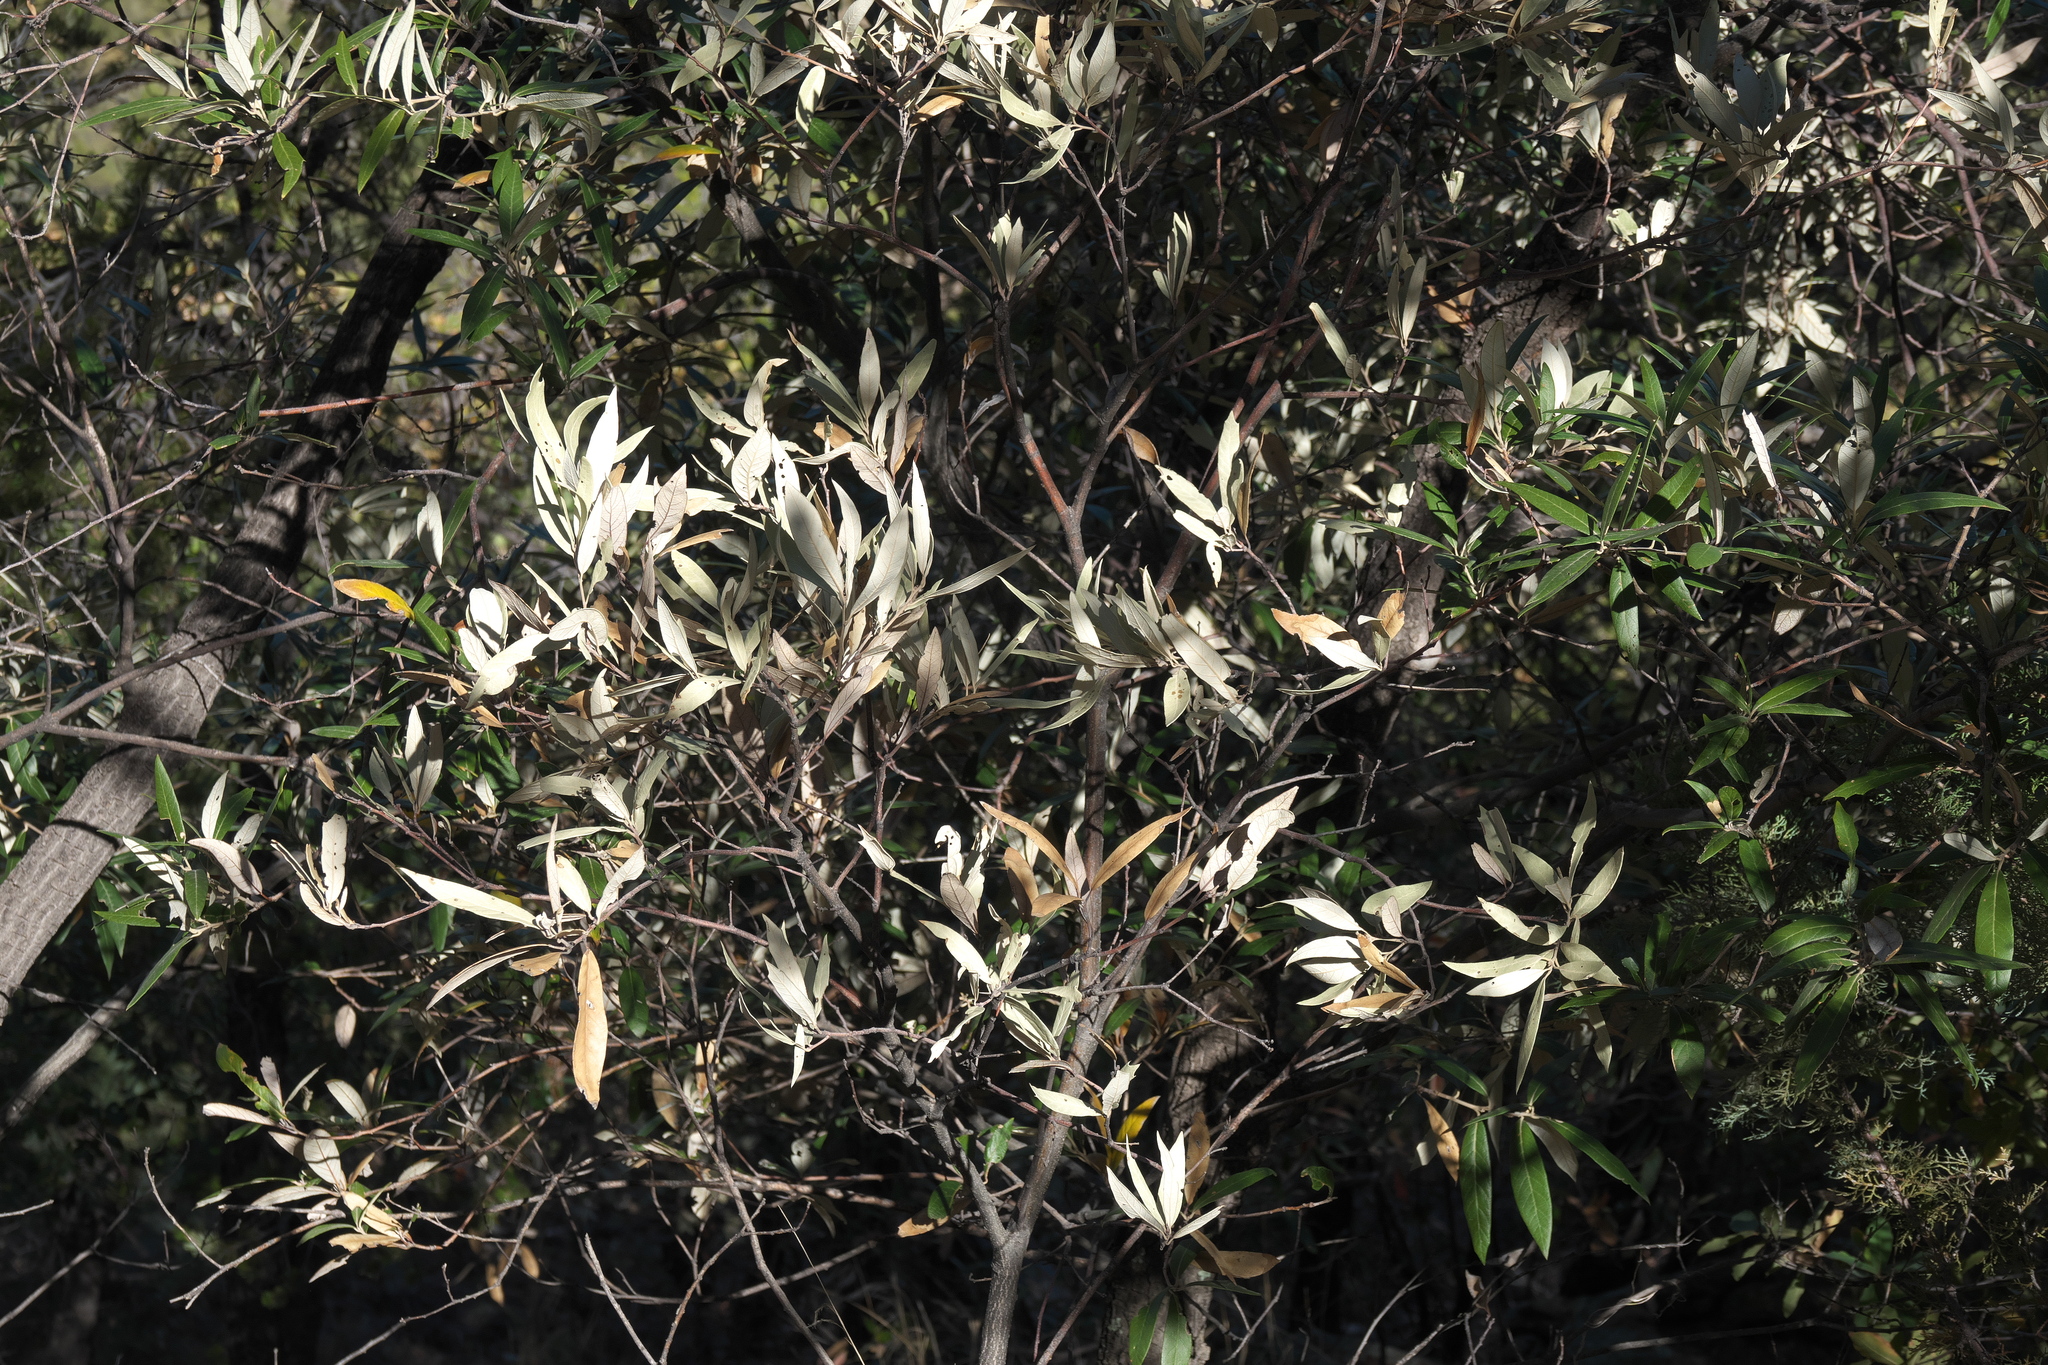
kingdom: Plantae
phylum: Tracheophyta
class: Magnoliopsida
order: Fagales
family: Fagaceae
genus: Quercus
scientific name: Quercus hypoleucoides
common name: Silverleaf oak
